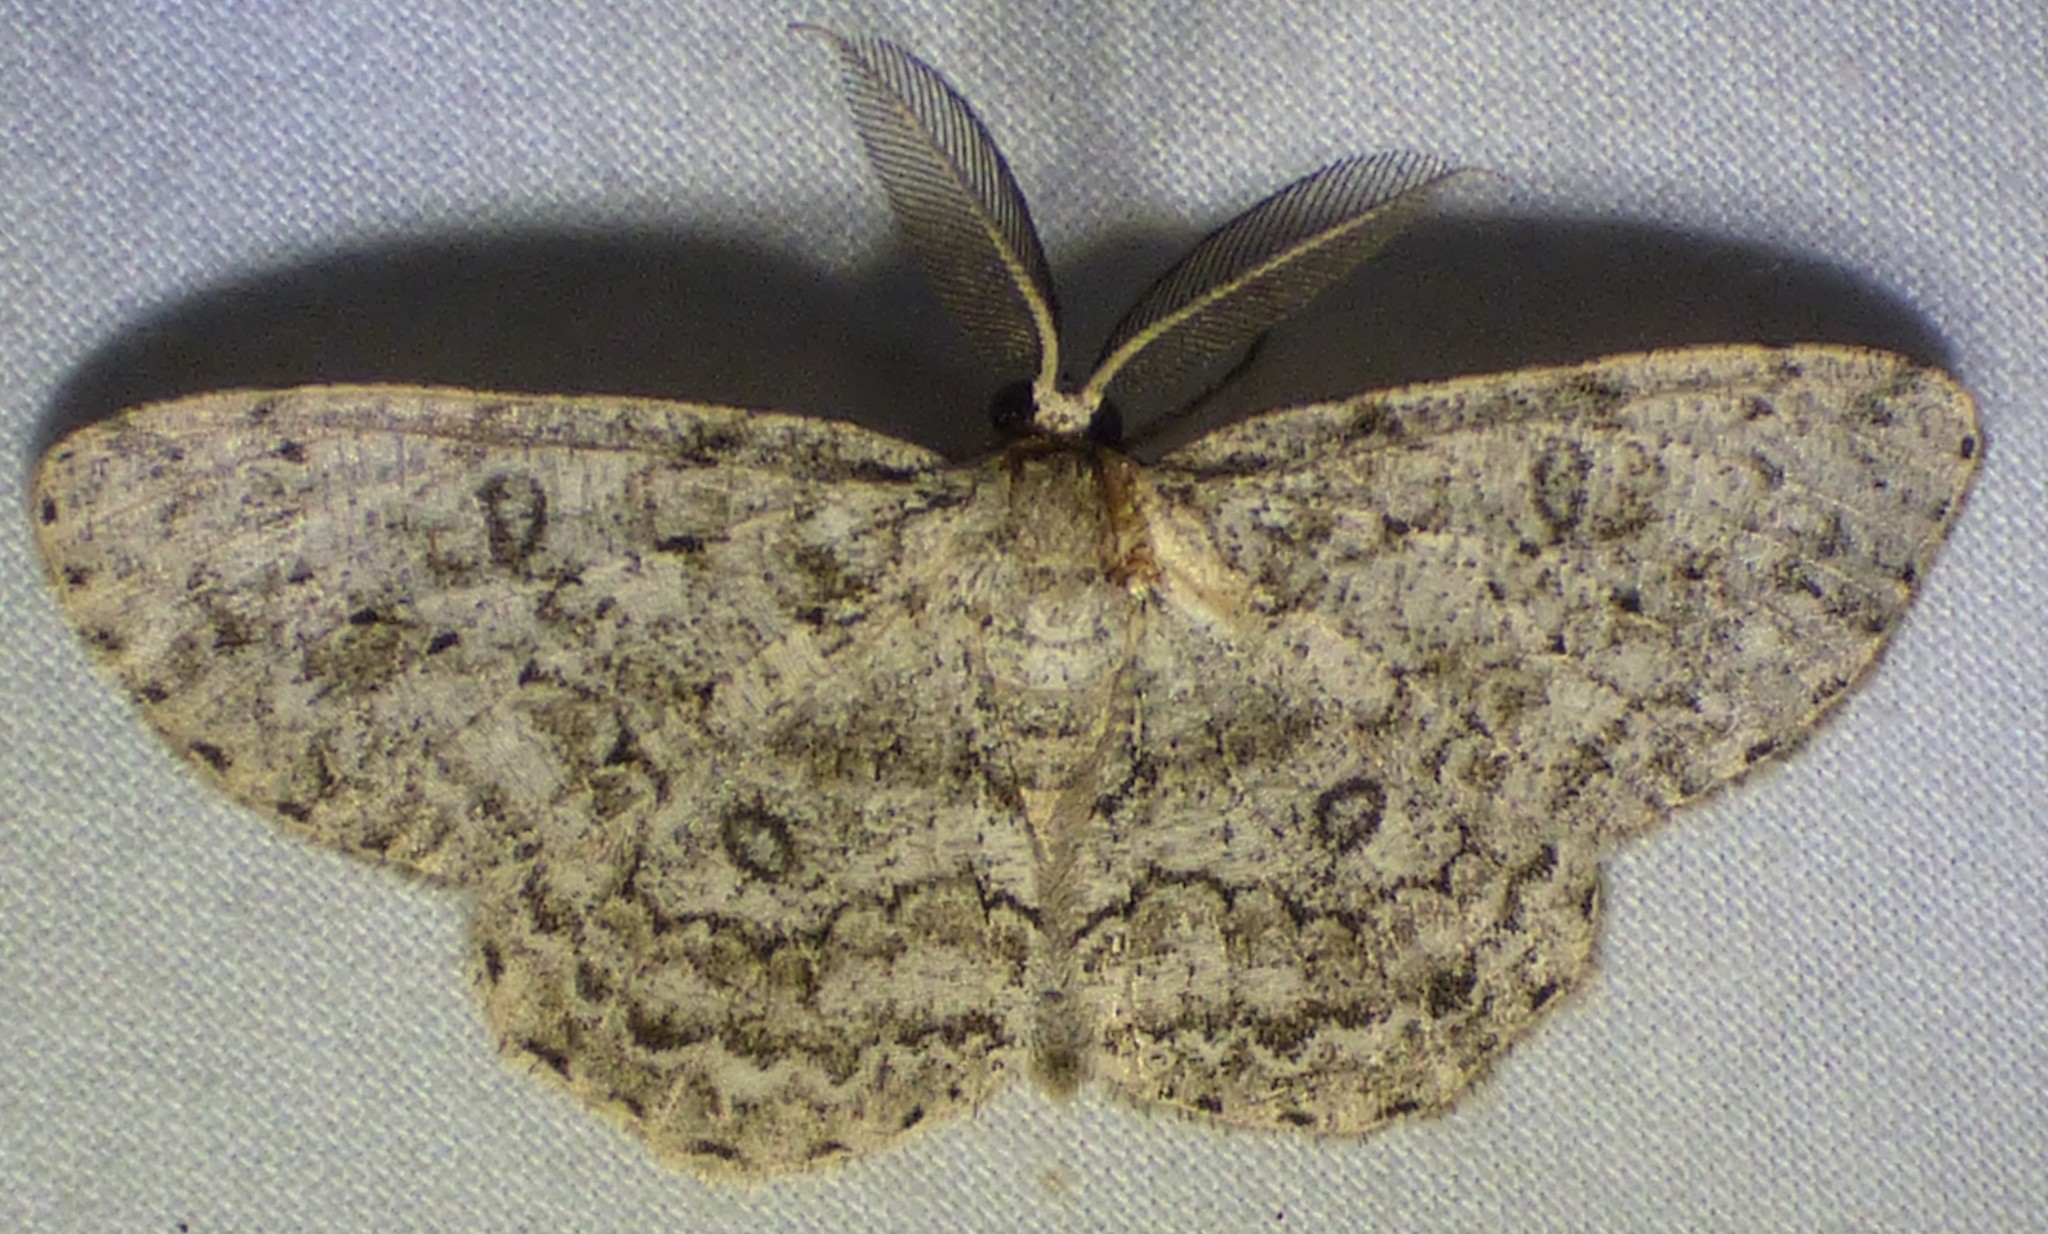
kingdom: Animalia
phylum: Arthropoda
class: Insecta
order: Lepidoptera
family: Geometridae
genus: Hypomecis
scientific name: Hypomecis umbrosaria
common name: Umber moth
